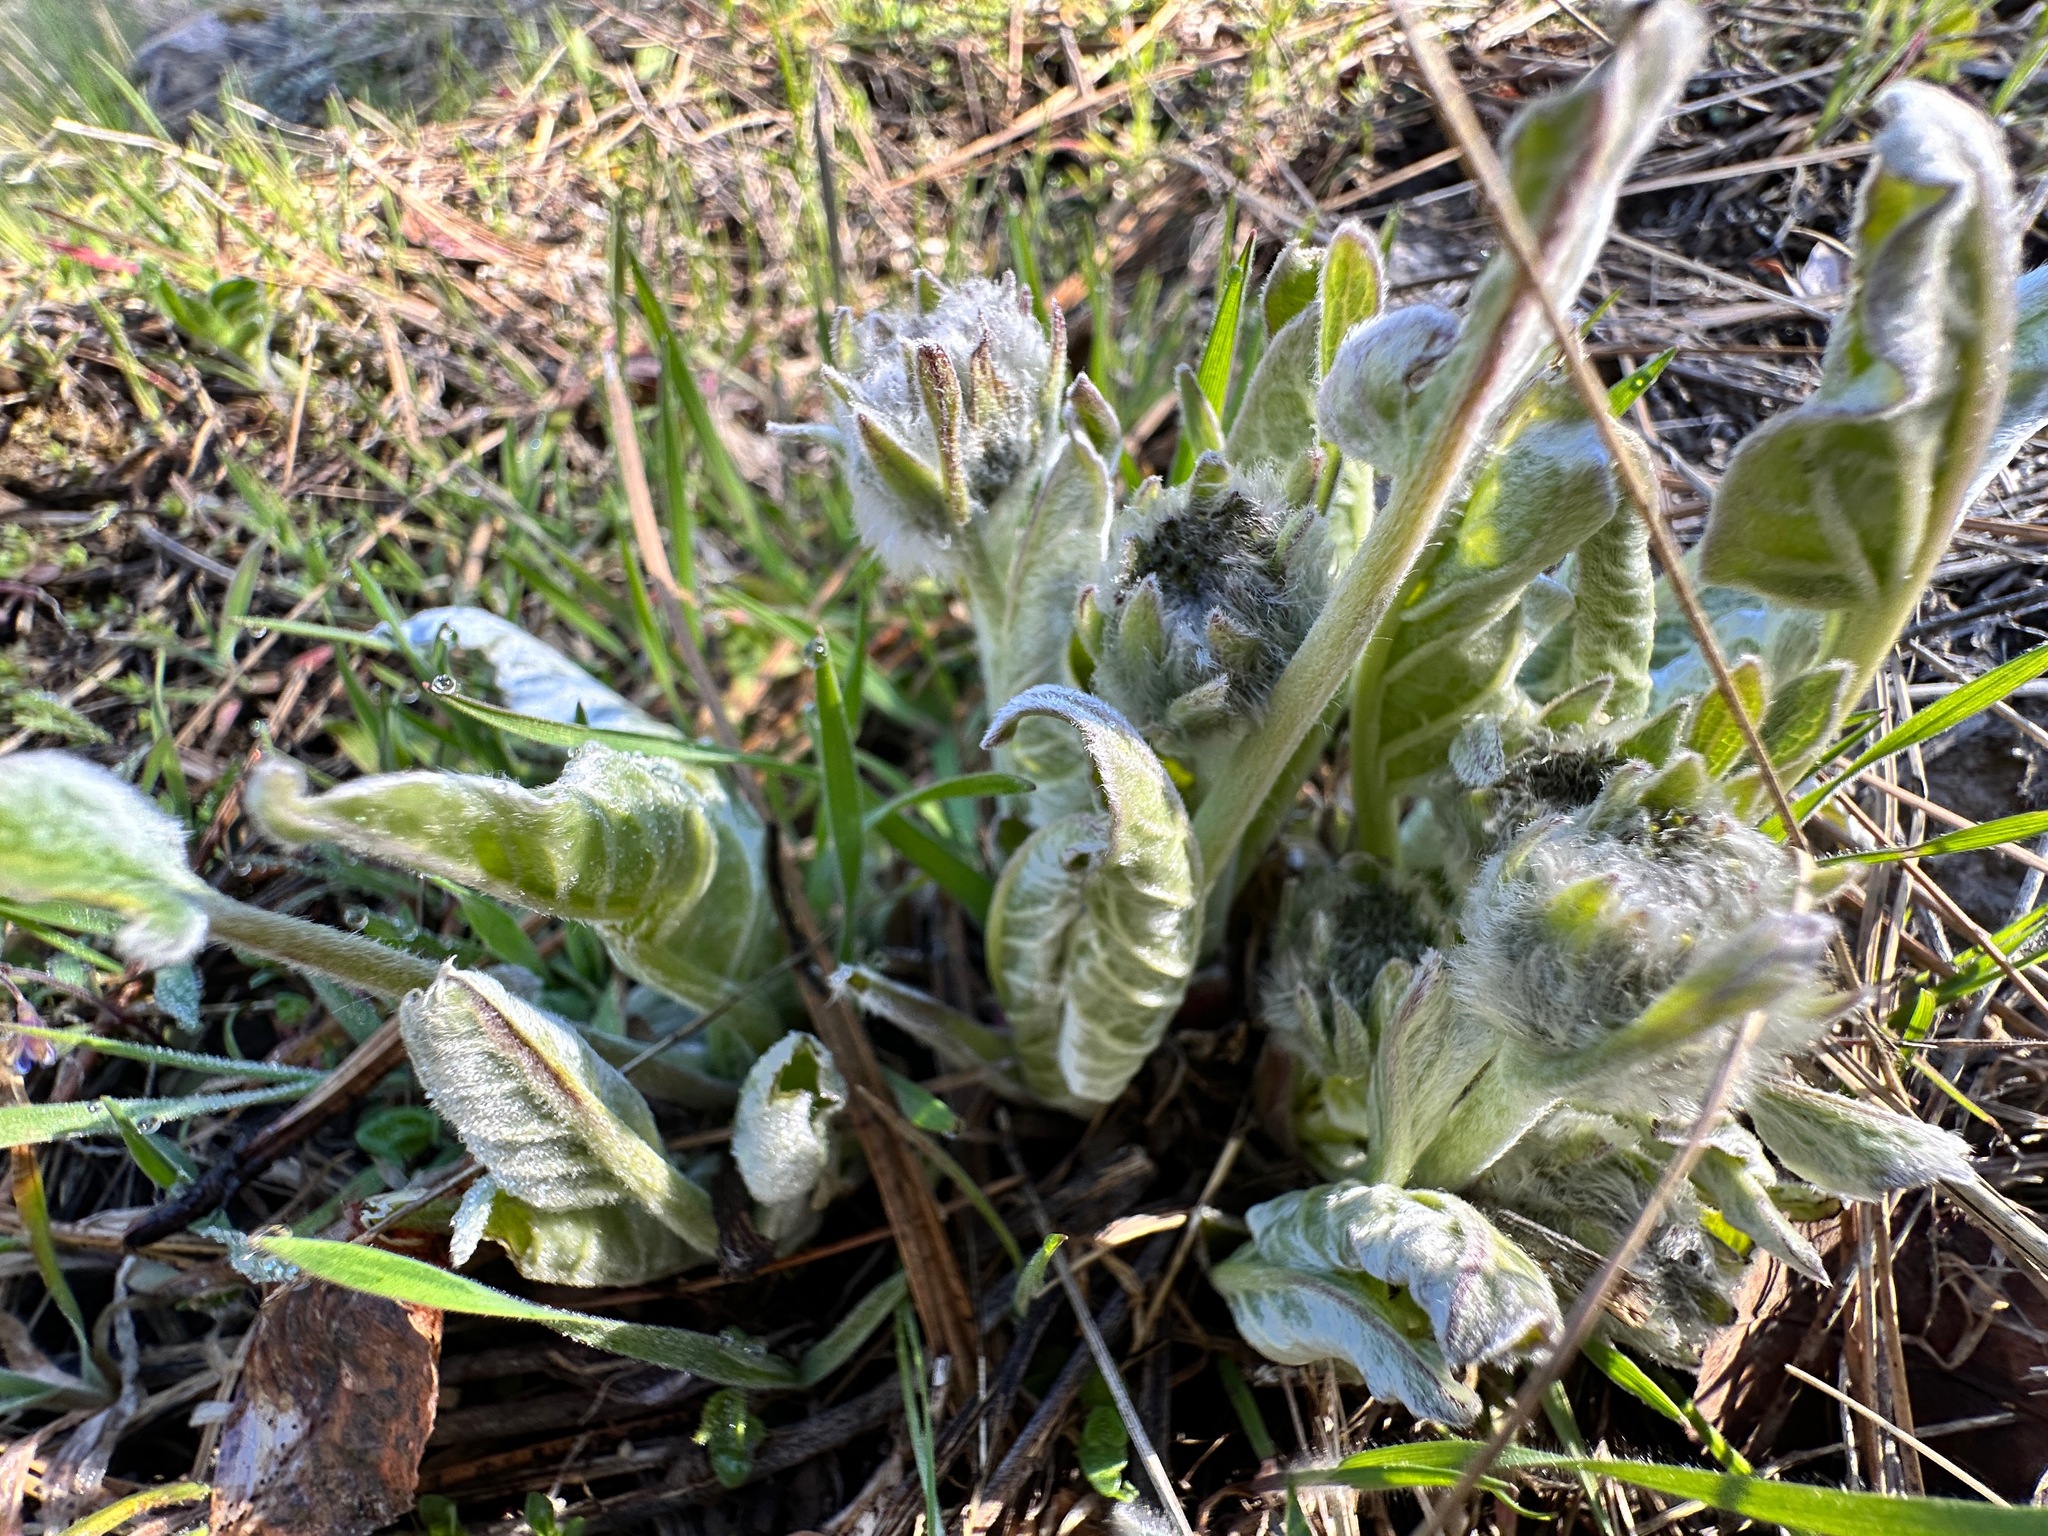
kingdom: Plantae
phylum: Tracheophyta
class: Magnoliopsida
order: Asterales
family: Asteraceae
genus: Wyethia
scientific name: Wyethia sagittata
